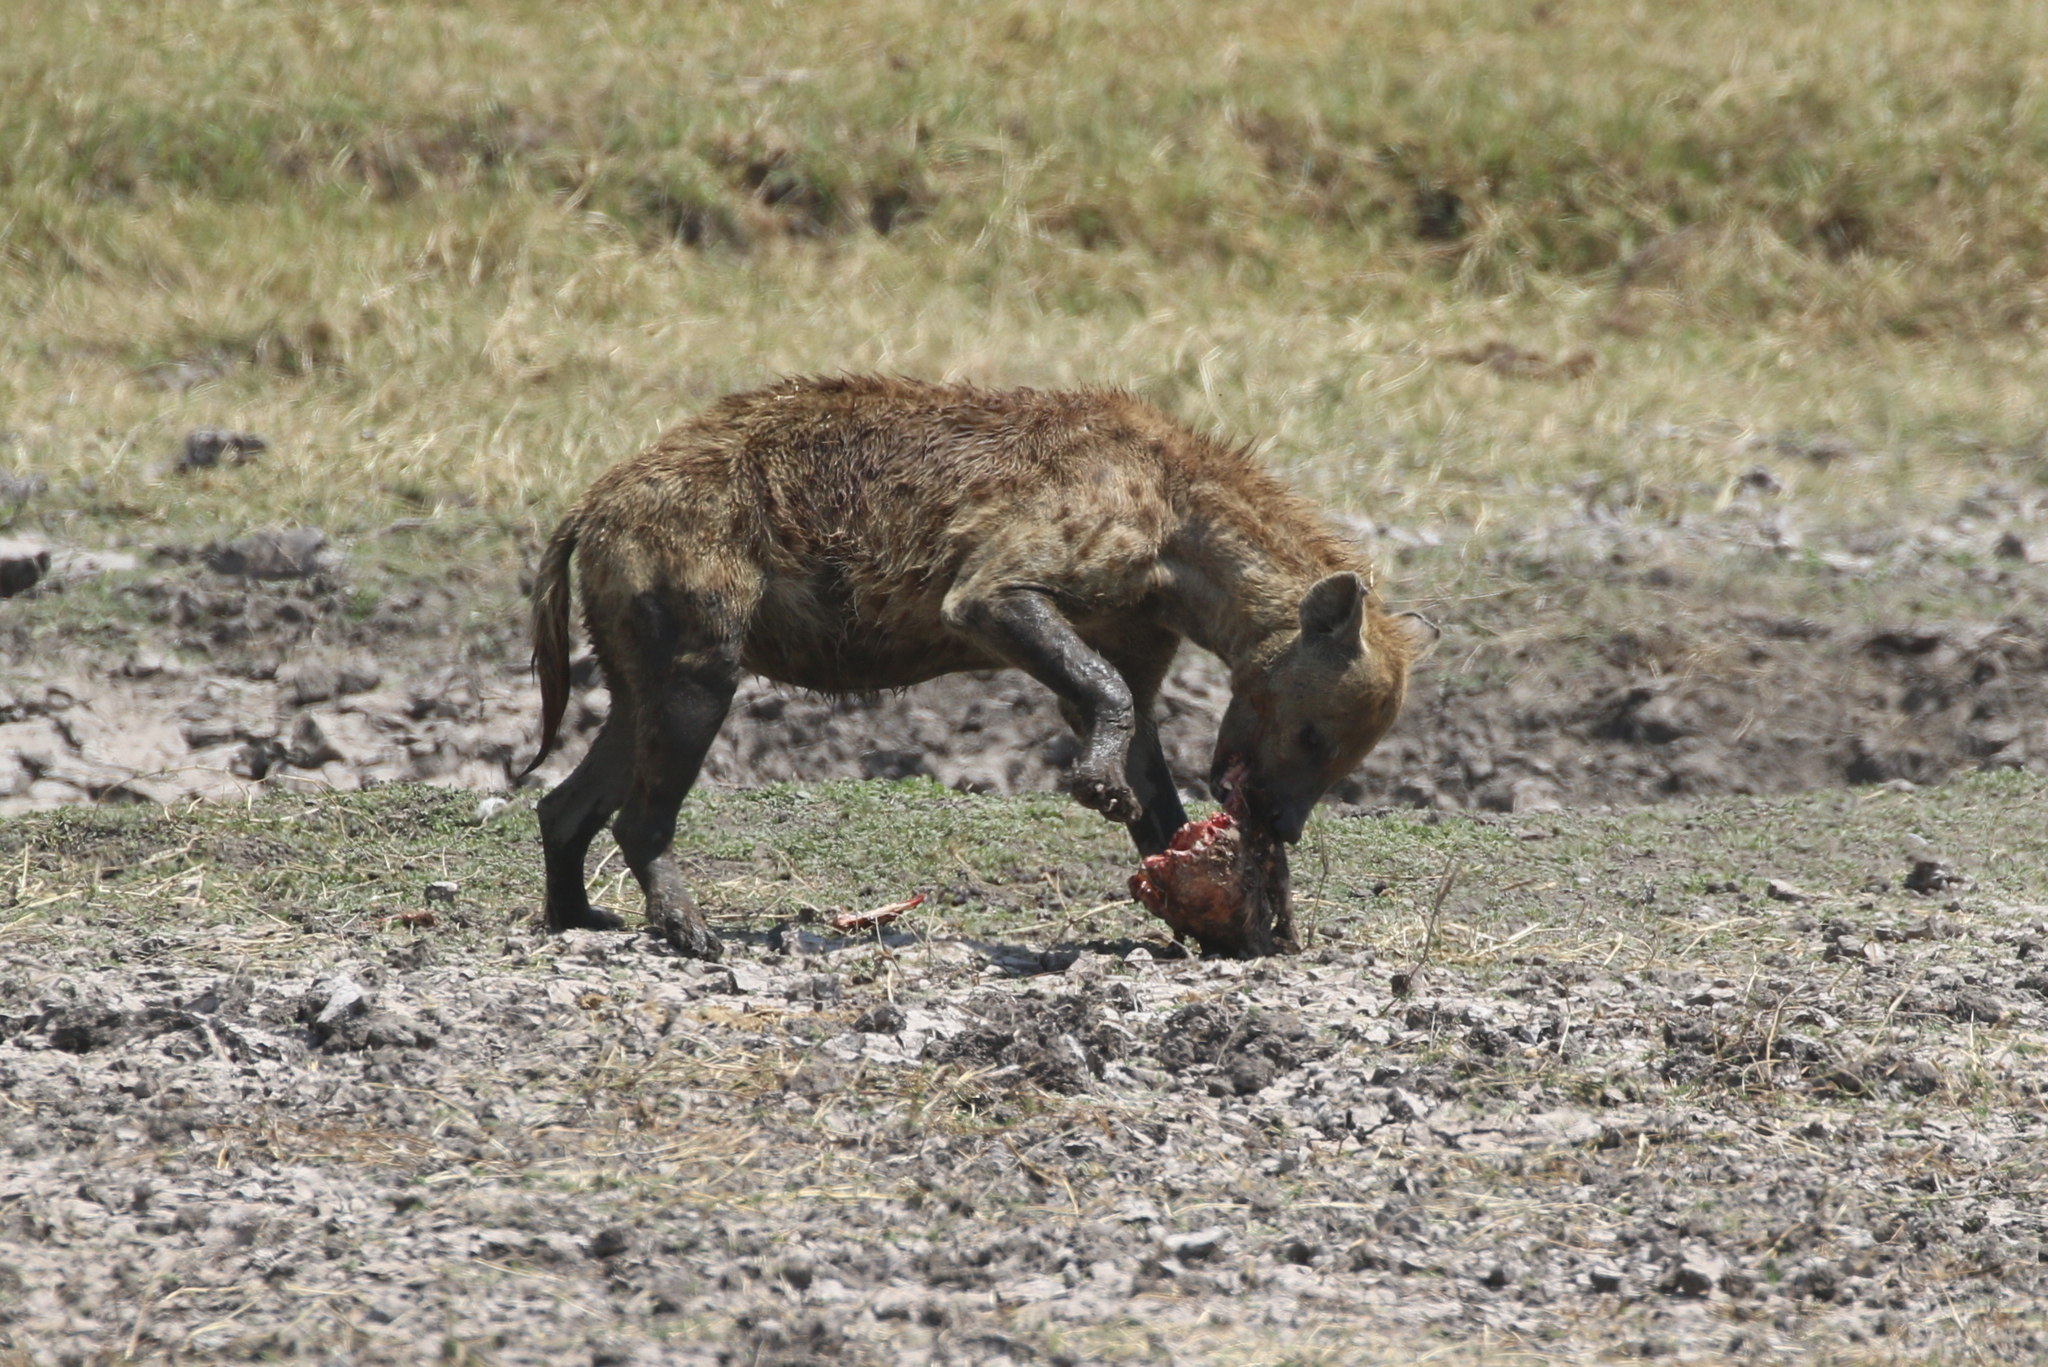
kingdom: Animalia
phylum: Chordata
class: Mammalia
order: Carnivora
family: Hyaenidae
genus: Crocuta
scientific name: Crocuta crocuta
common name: Spotted hyaena
